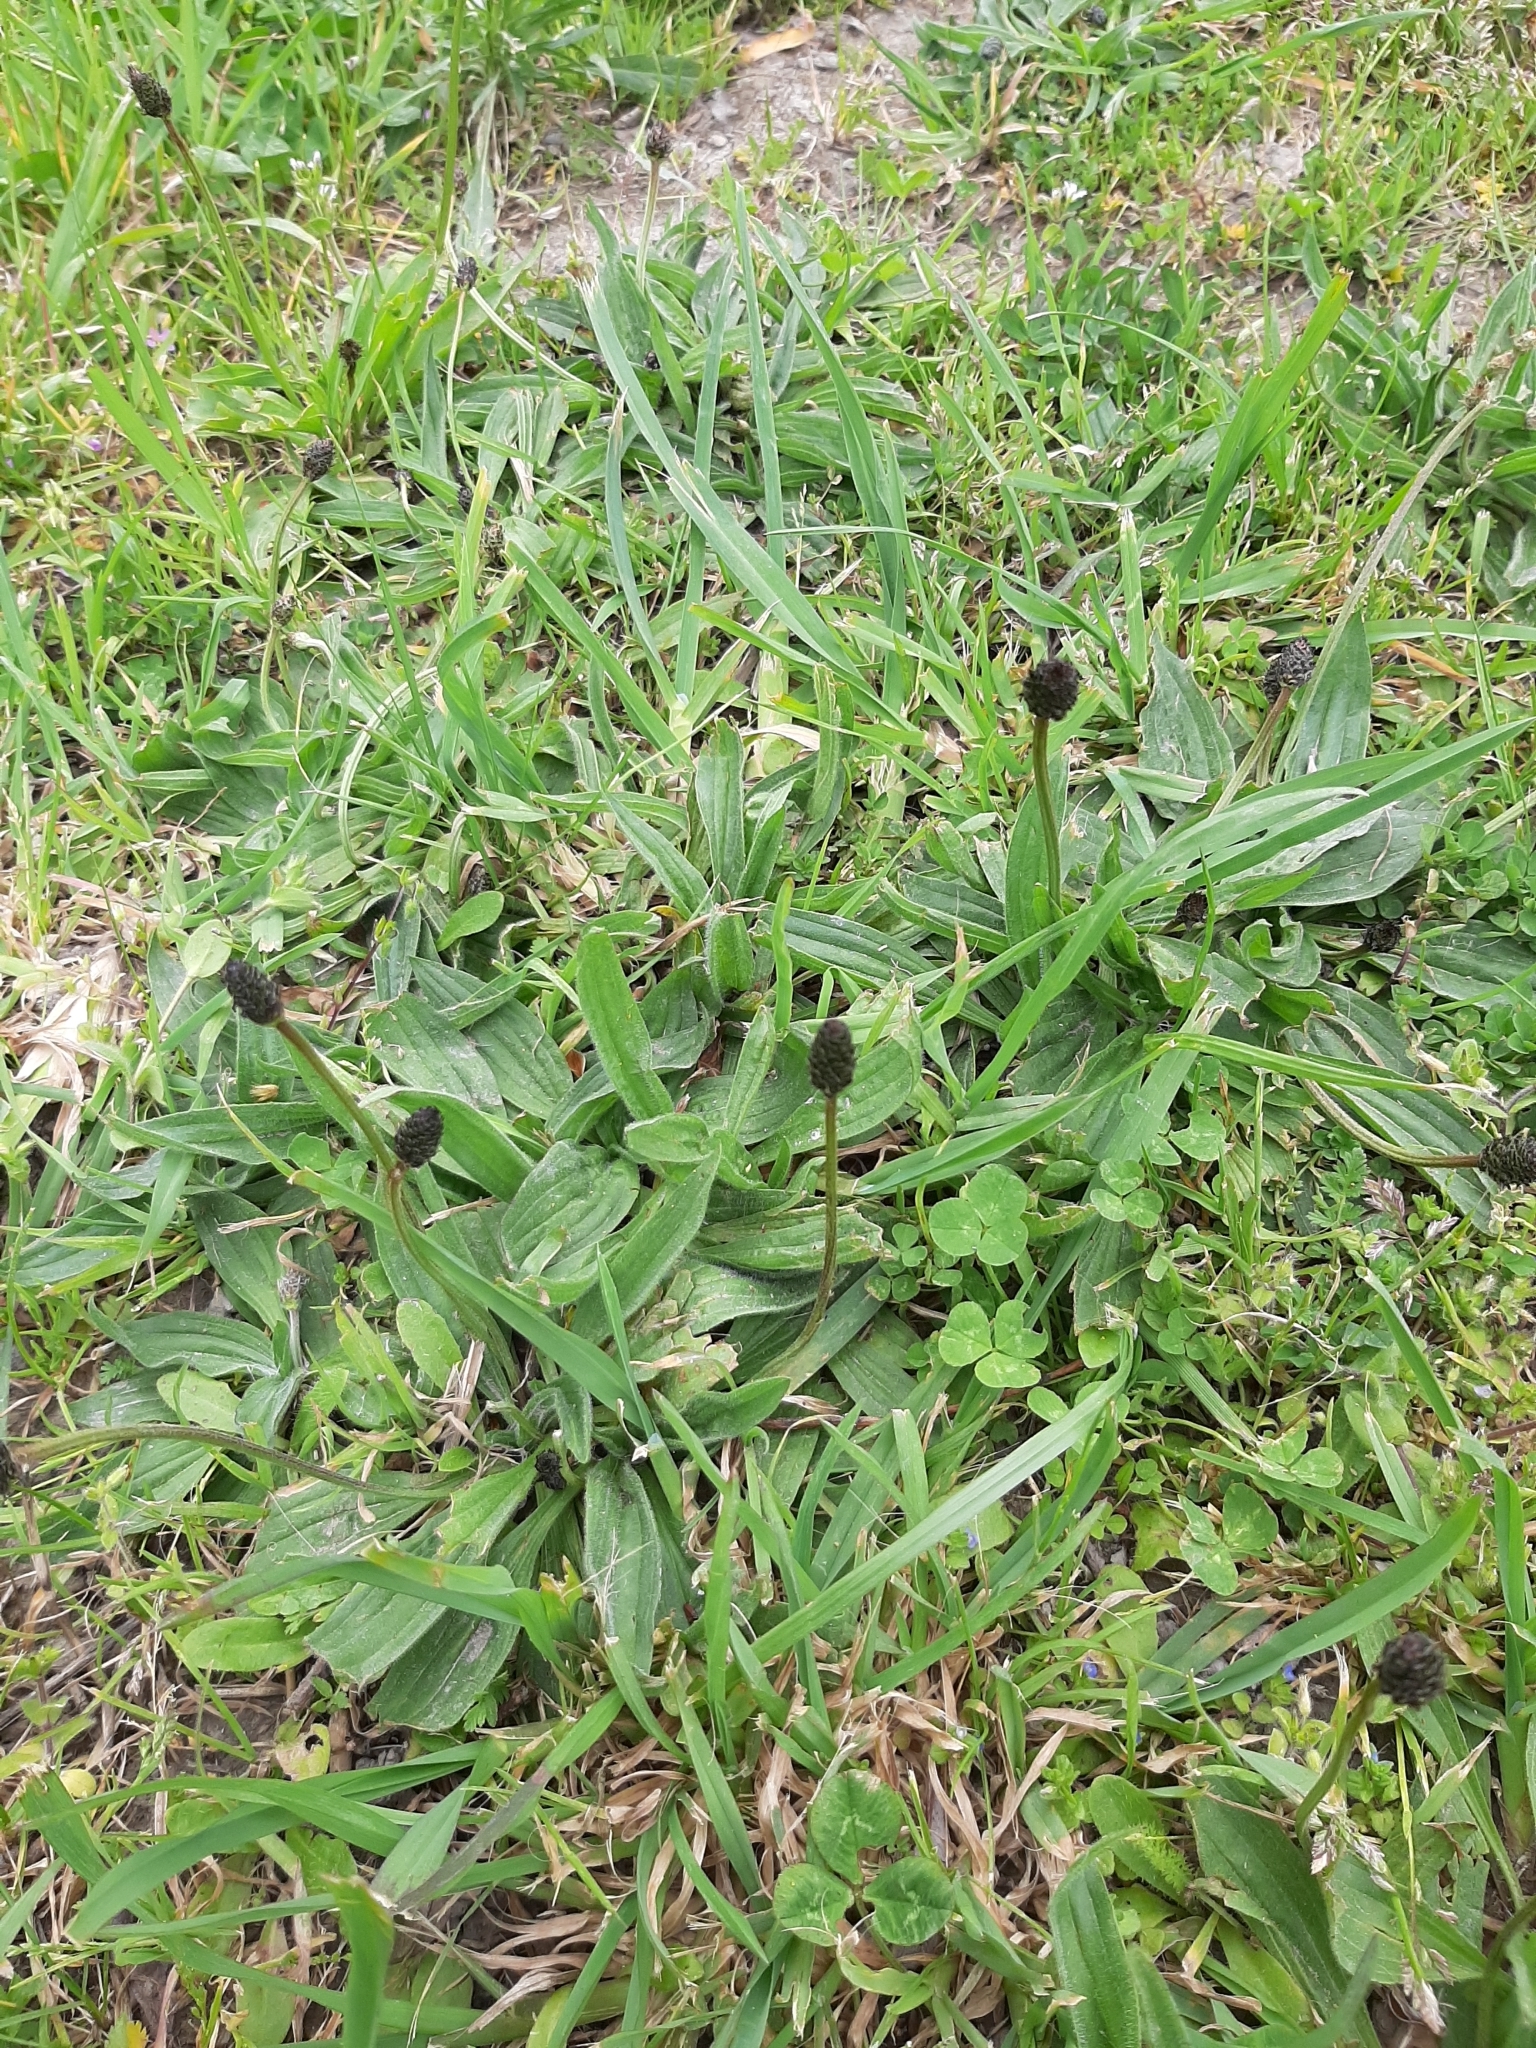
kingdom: Plantae
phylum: Tracheophyta
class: Magnoliopsida
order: Lamiales
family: Plantaginaceae
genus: Plantago
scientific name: Plantago lanceolata
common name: Ribwort plantain
